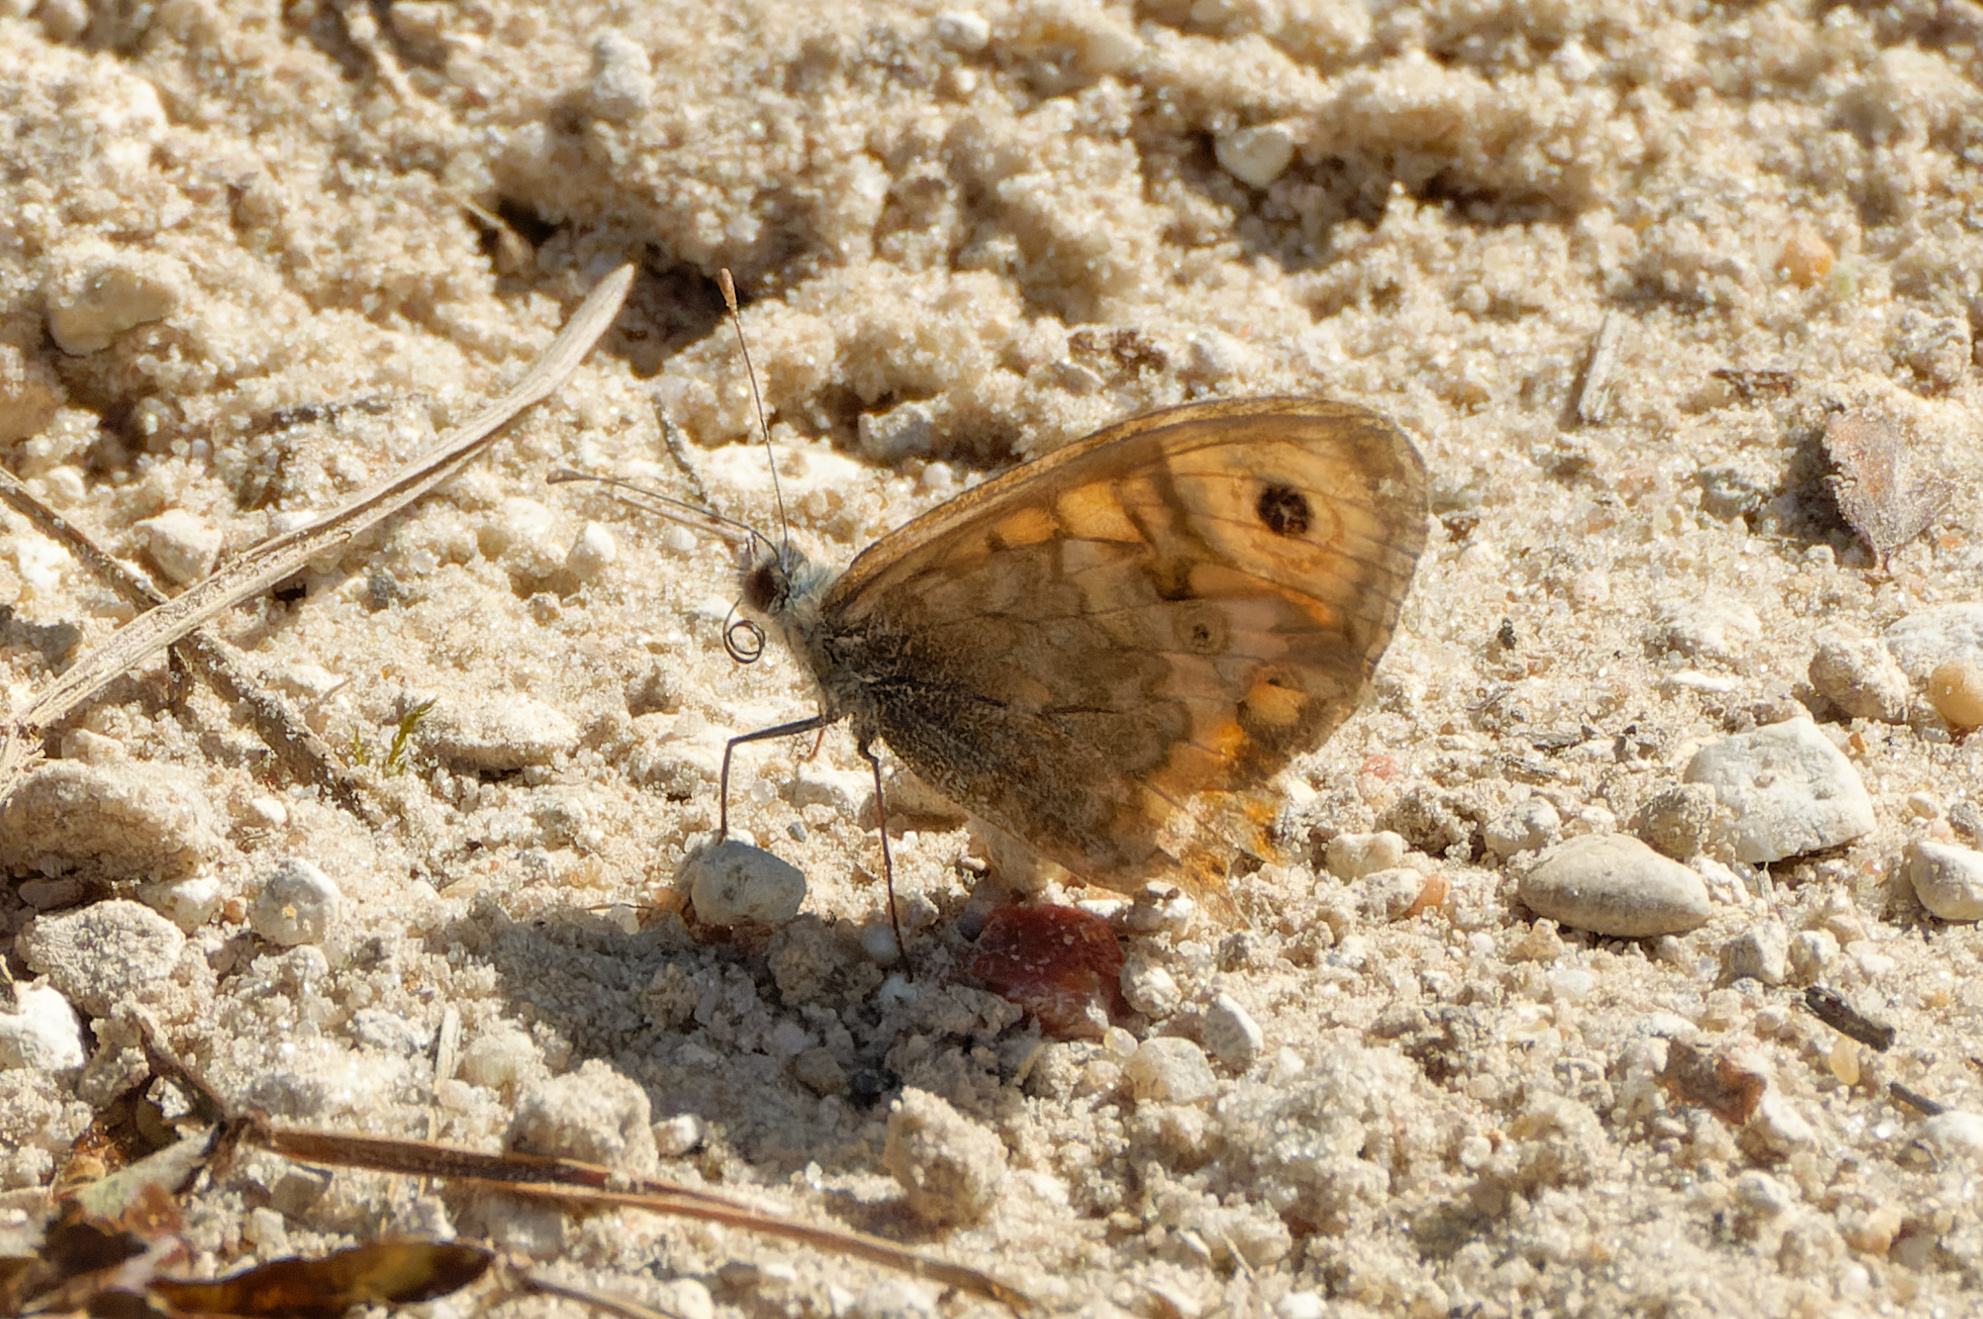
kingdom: Animalia
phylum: Arthropoda
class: Insecta
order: Lepidoptera
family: Nymphalidae
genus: Pararge
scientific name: Pararge Lasiommata megera
